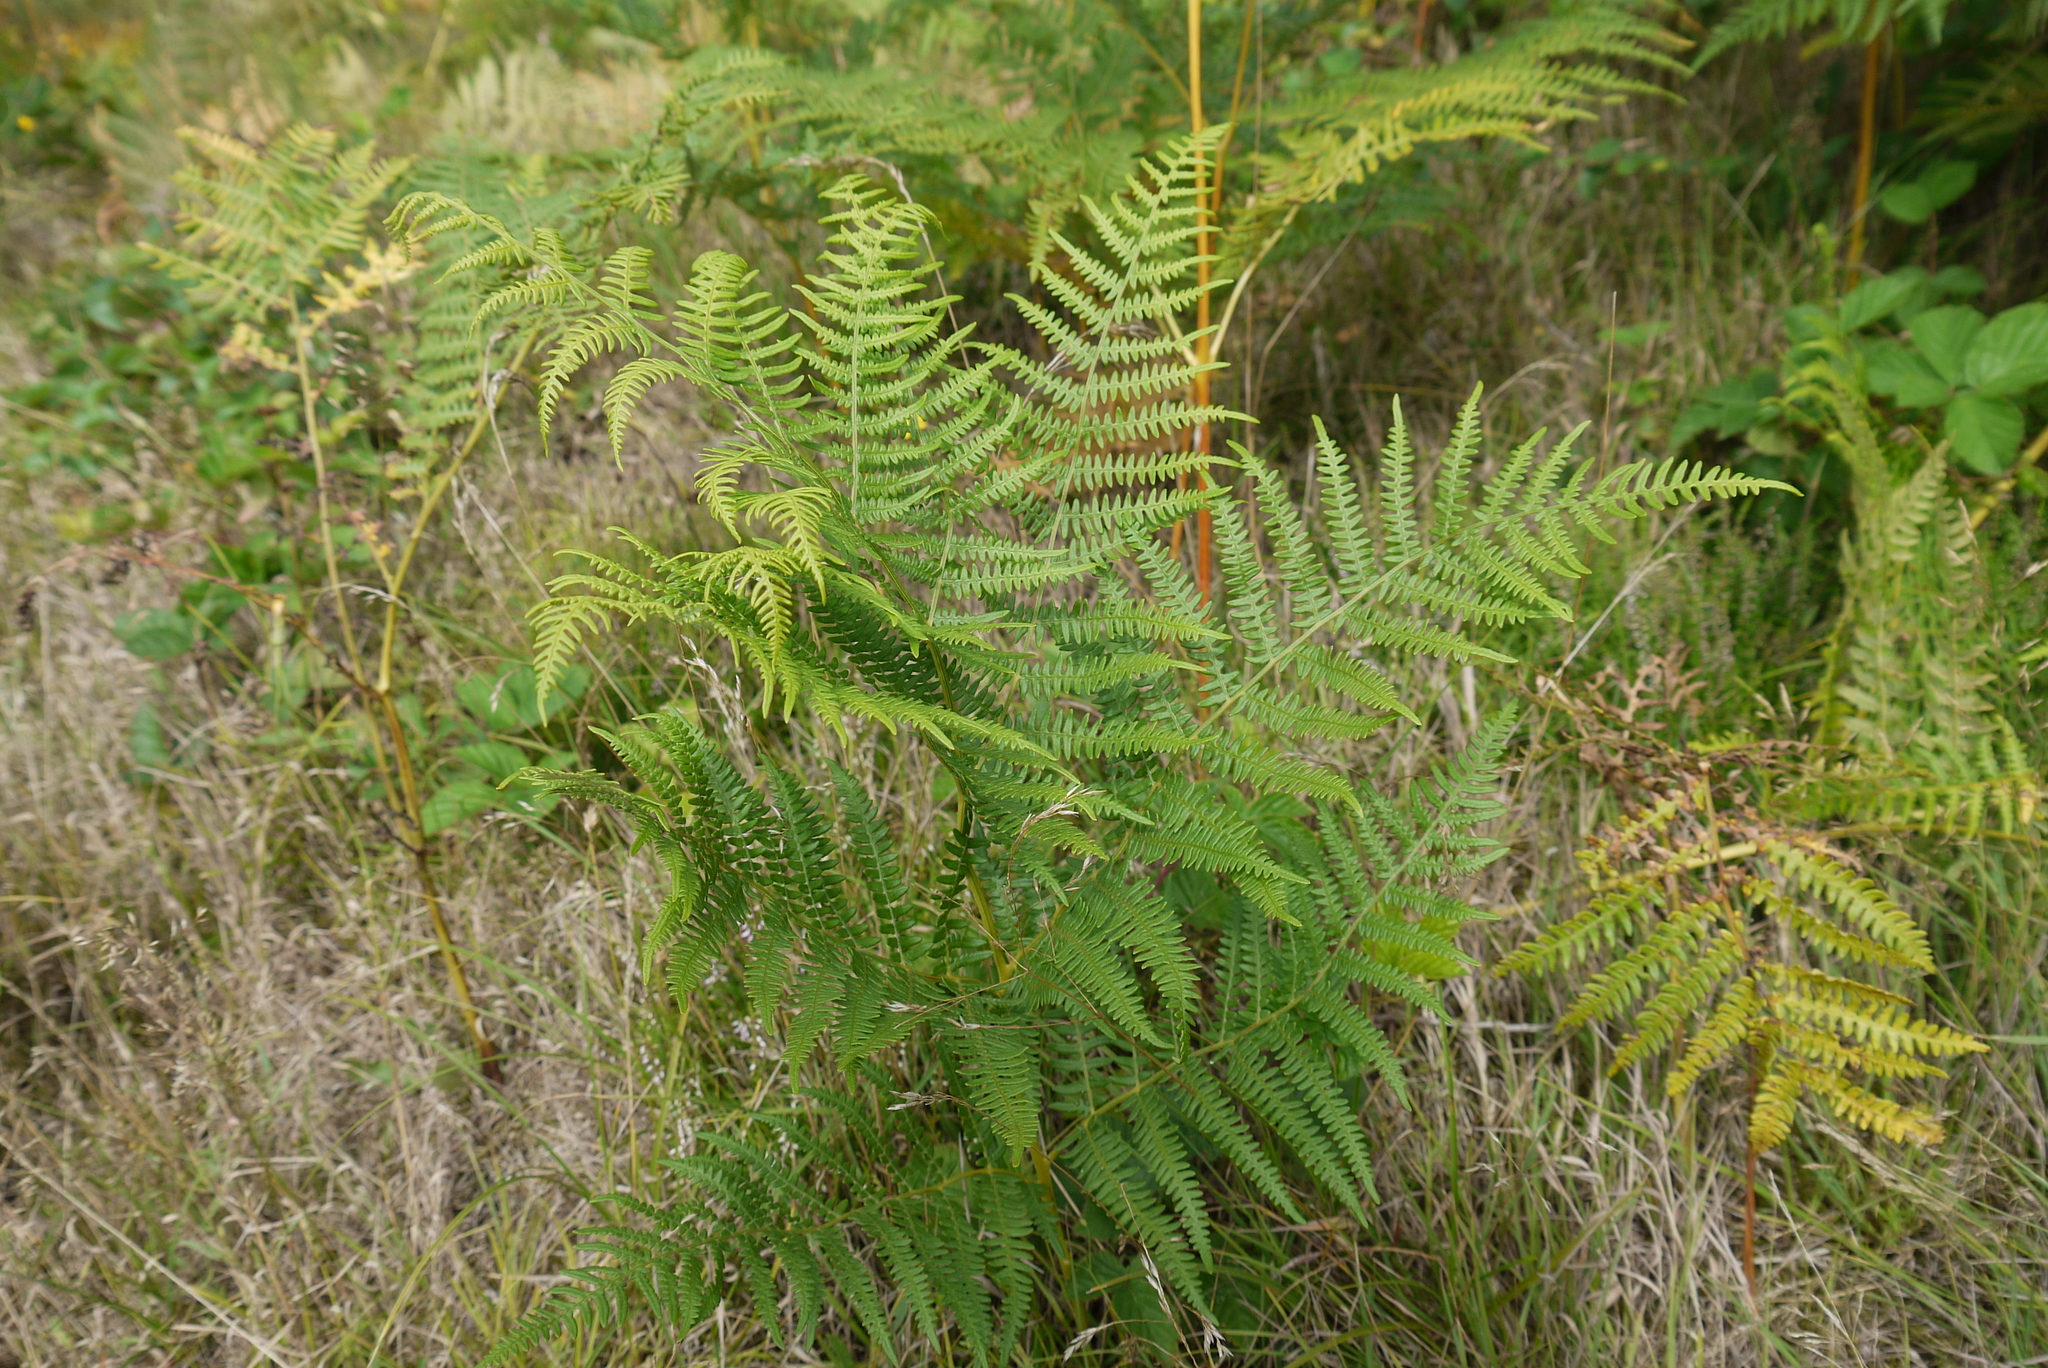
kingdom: Plantae
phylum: Tracheophyta
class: Polypodiopsida
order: Polypodiales
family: Dennstaedtiaceae
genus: Pteridium
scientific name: Pteridium aquilinum
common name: Bracken
